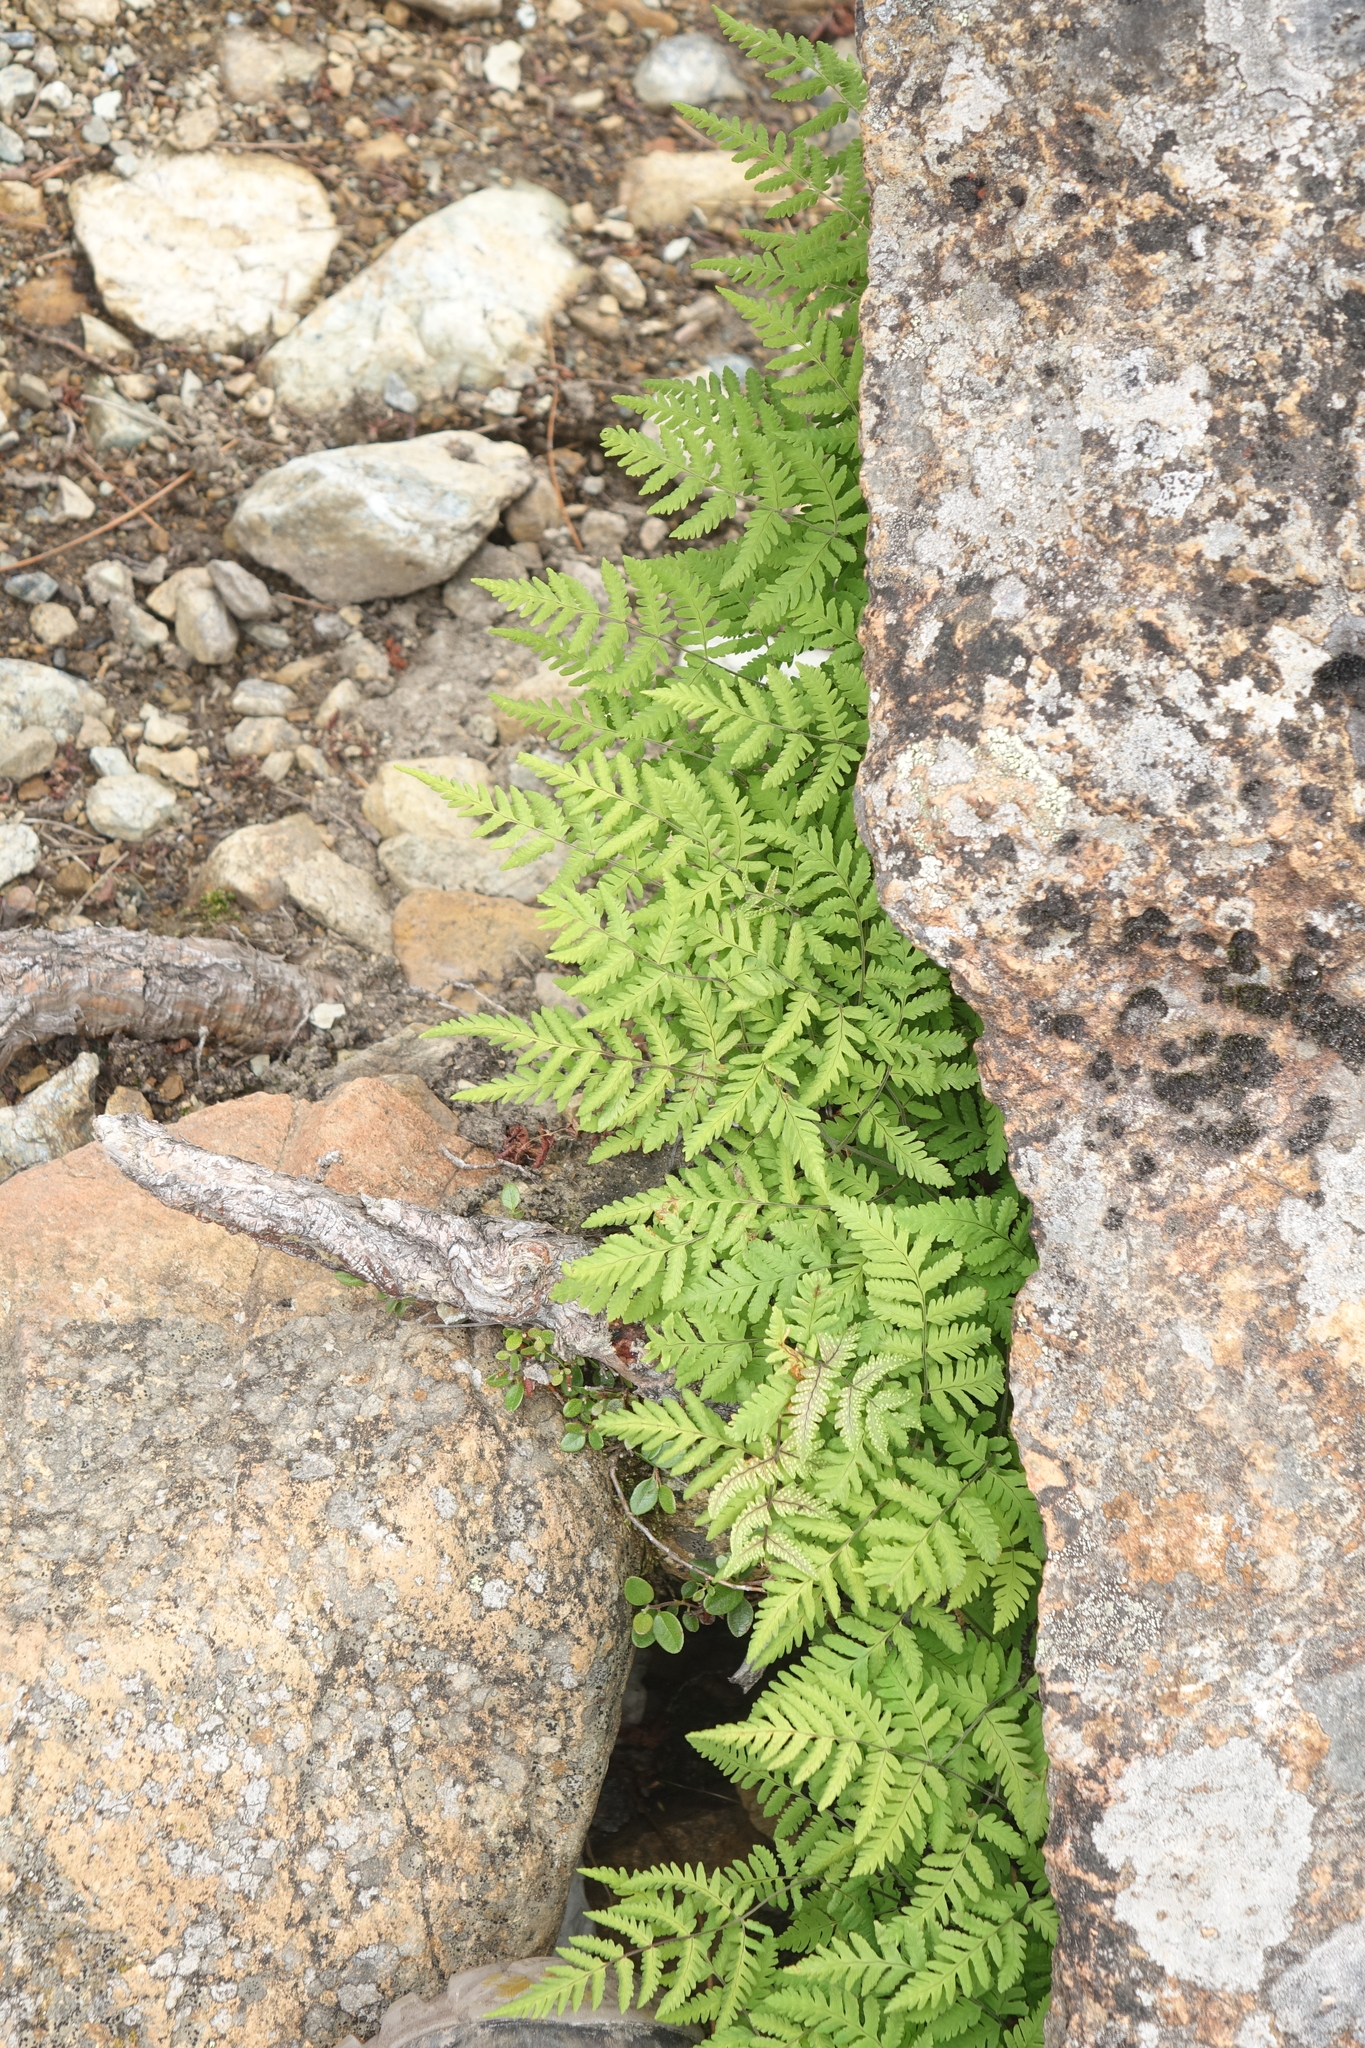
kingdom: Plantae
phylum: Tracheophyta
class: Polypodiopsida
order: Polypodiales
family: Cystopteridaceae
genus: Gymnocarpium
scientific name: Gymnocarpium jessoense
